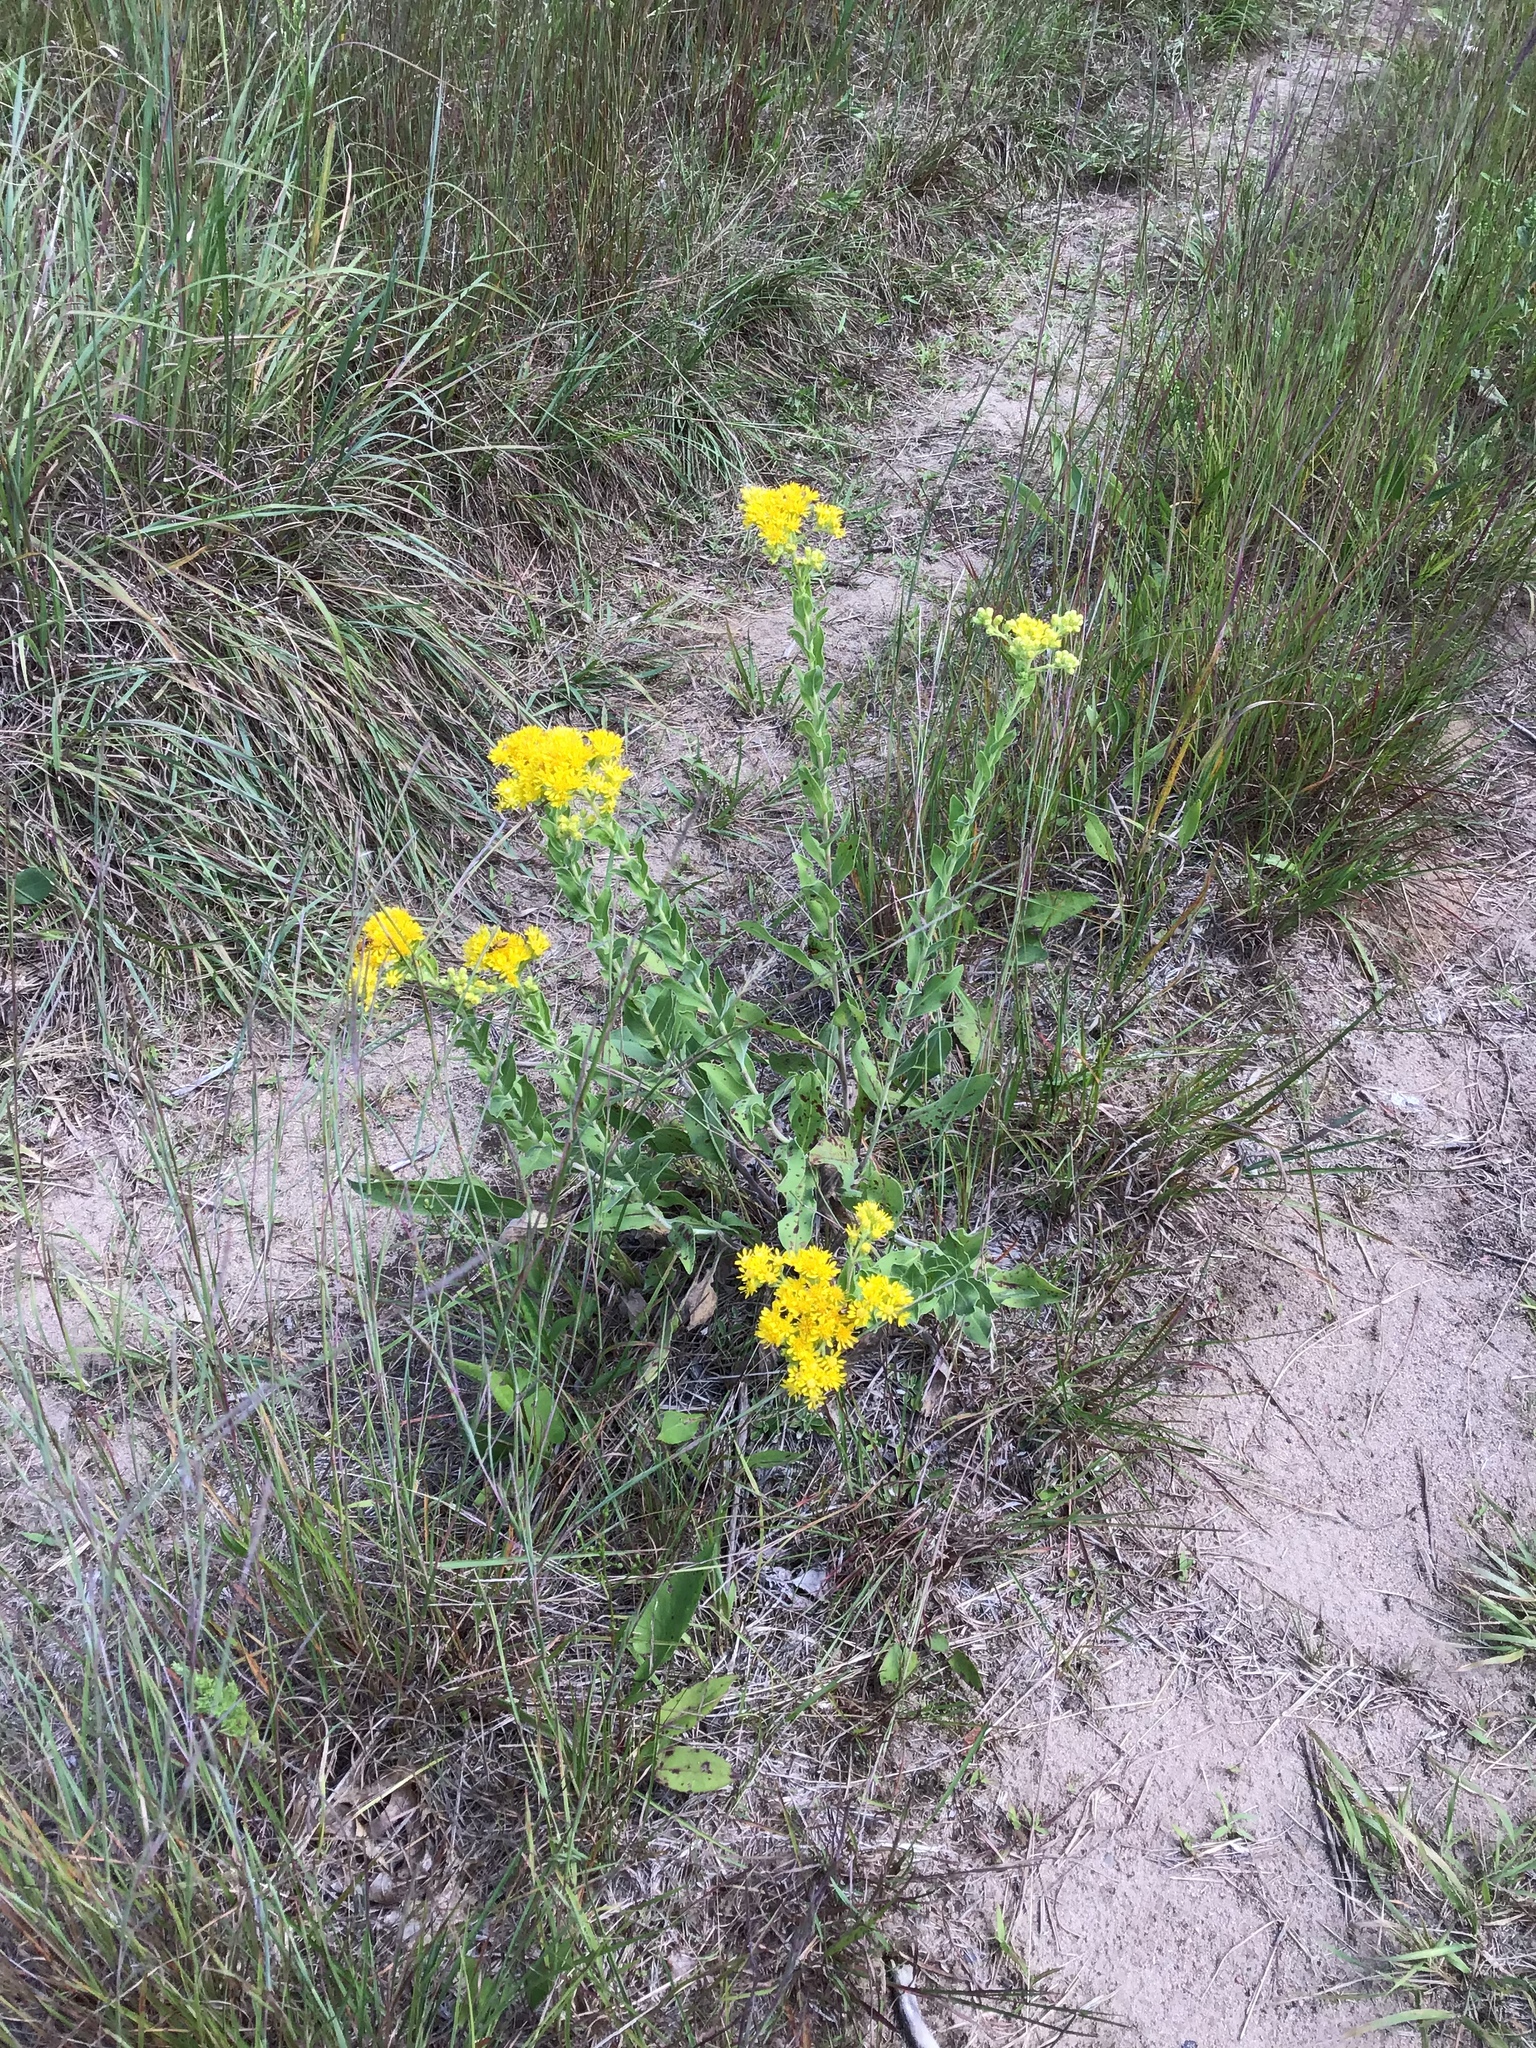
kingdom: Plantae
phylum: Tracheophyta
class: Magnoliopsida
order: Asterales
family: Asteraceae
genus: Solidago
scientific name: Solidago rigida
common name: Rigid goldenrod
